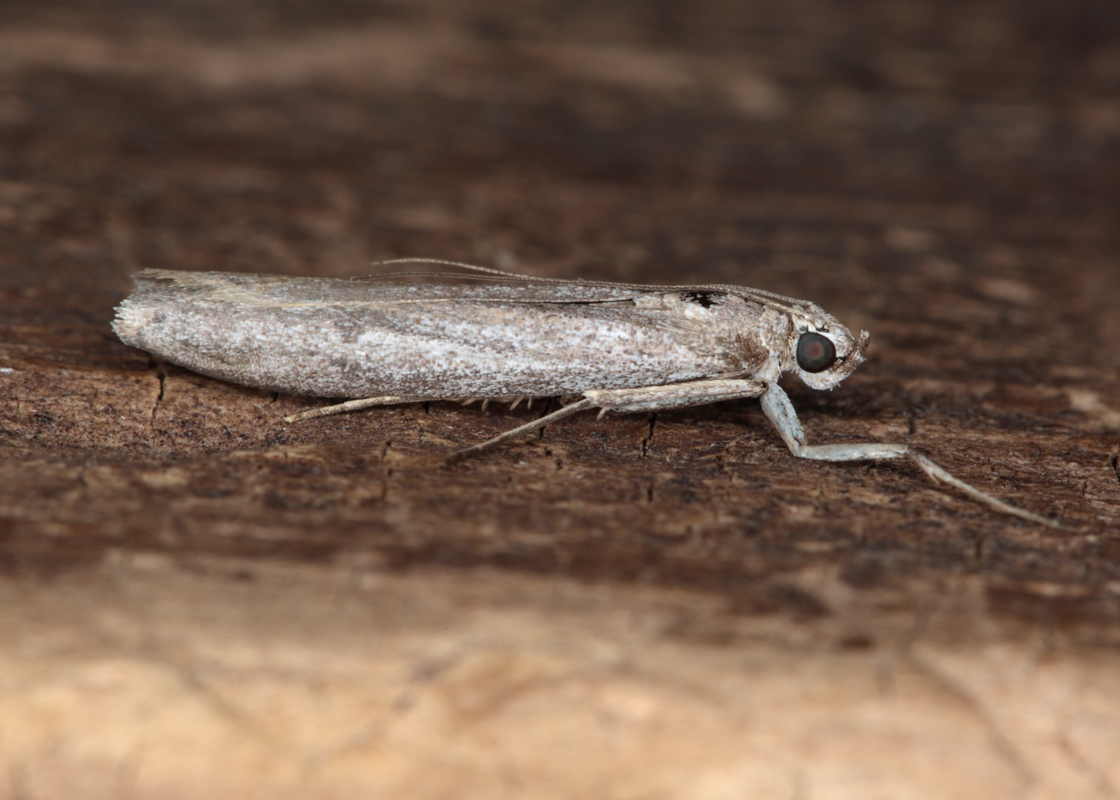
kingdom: Animalia
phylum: Arthropoda
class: Insecta
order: Lepidoptera
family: Pyralidae
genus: Homoeosoma
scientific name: Homoeosoma anaspila
